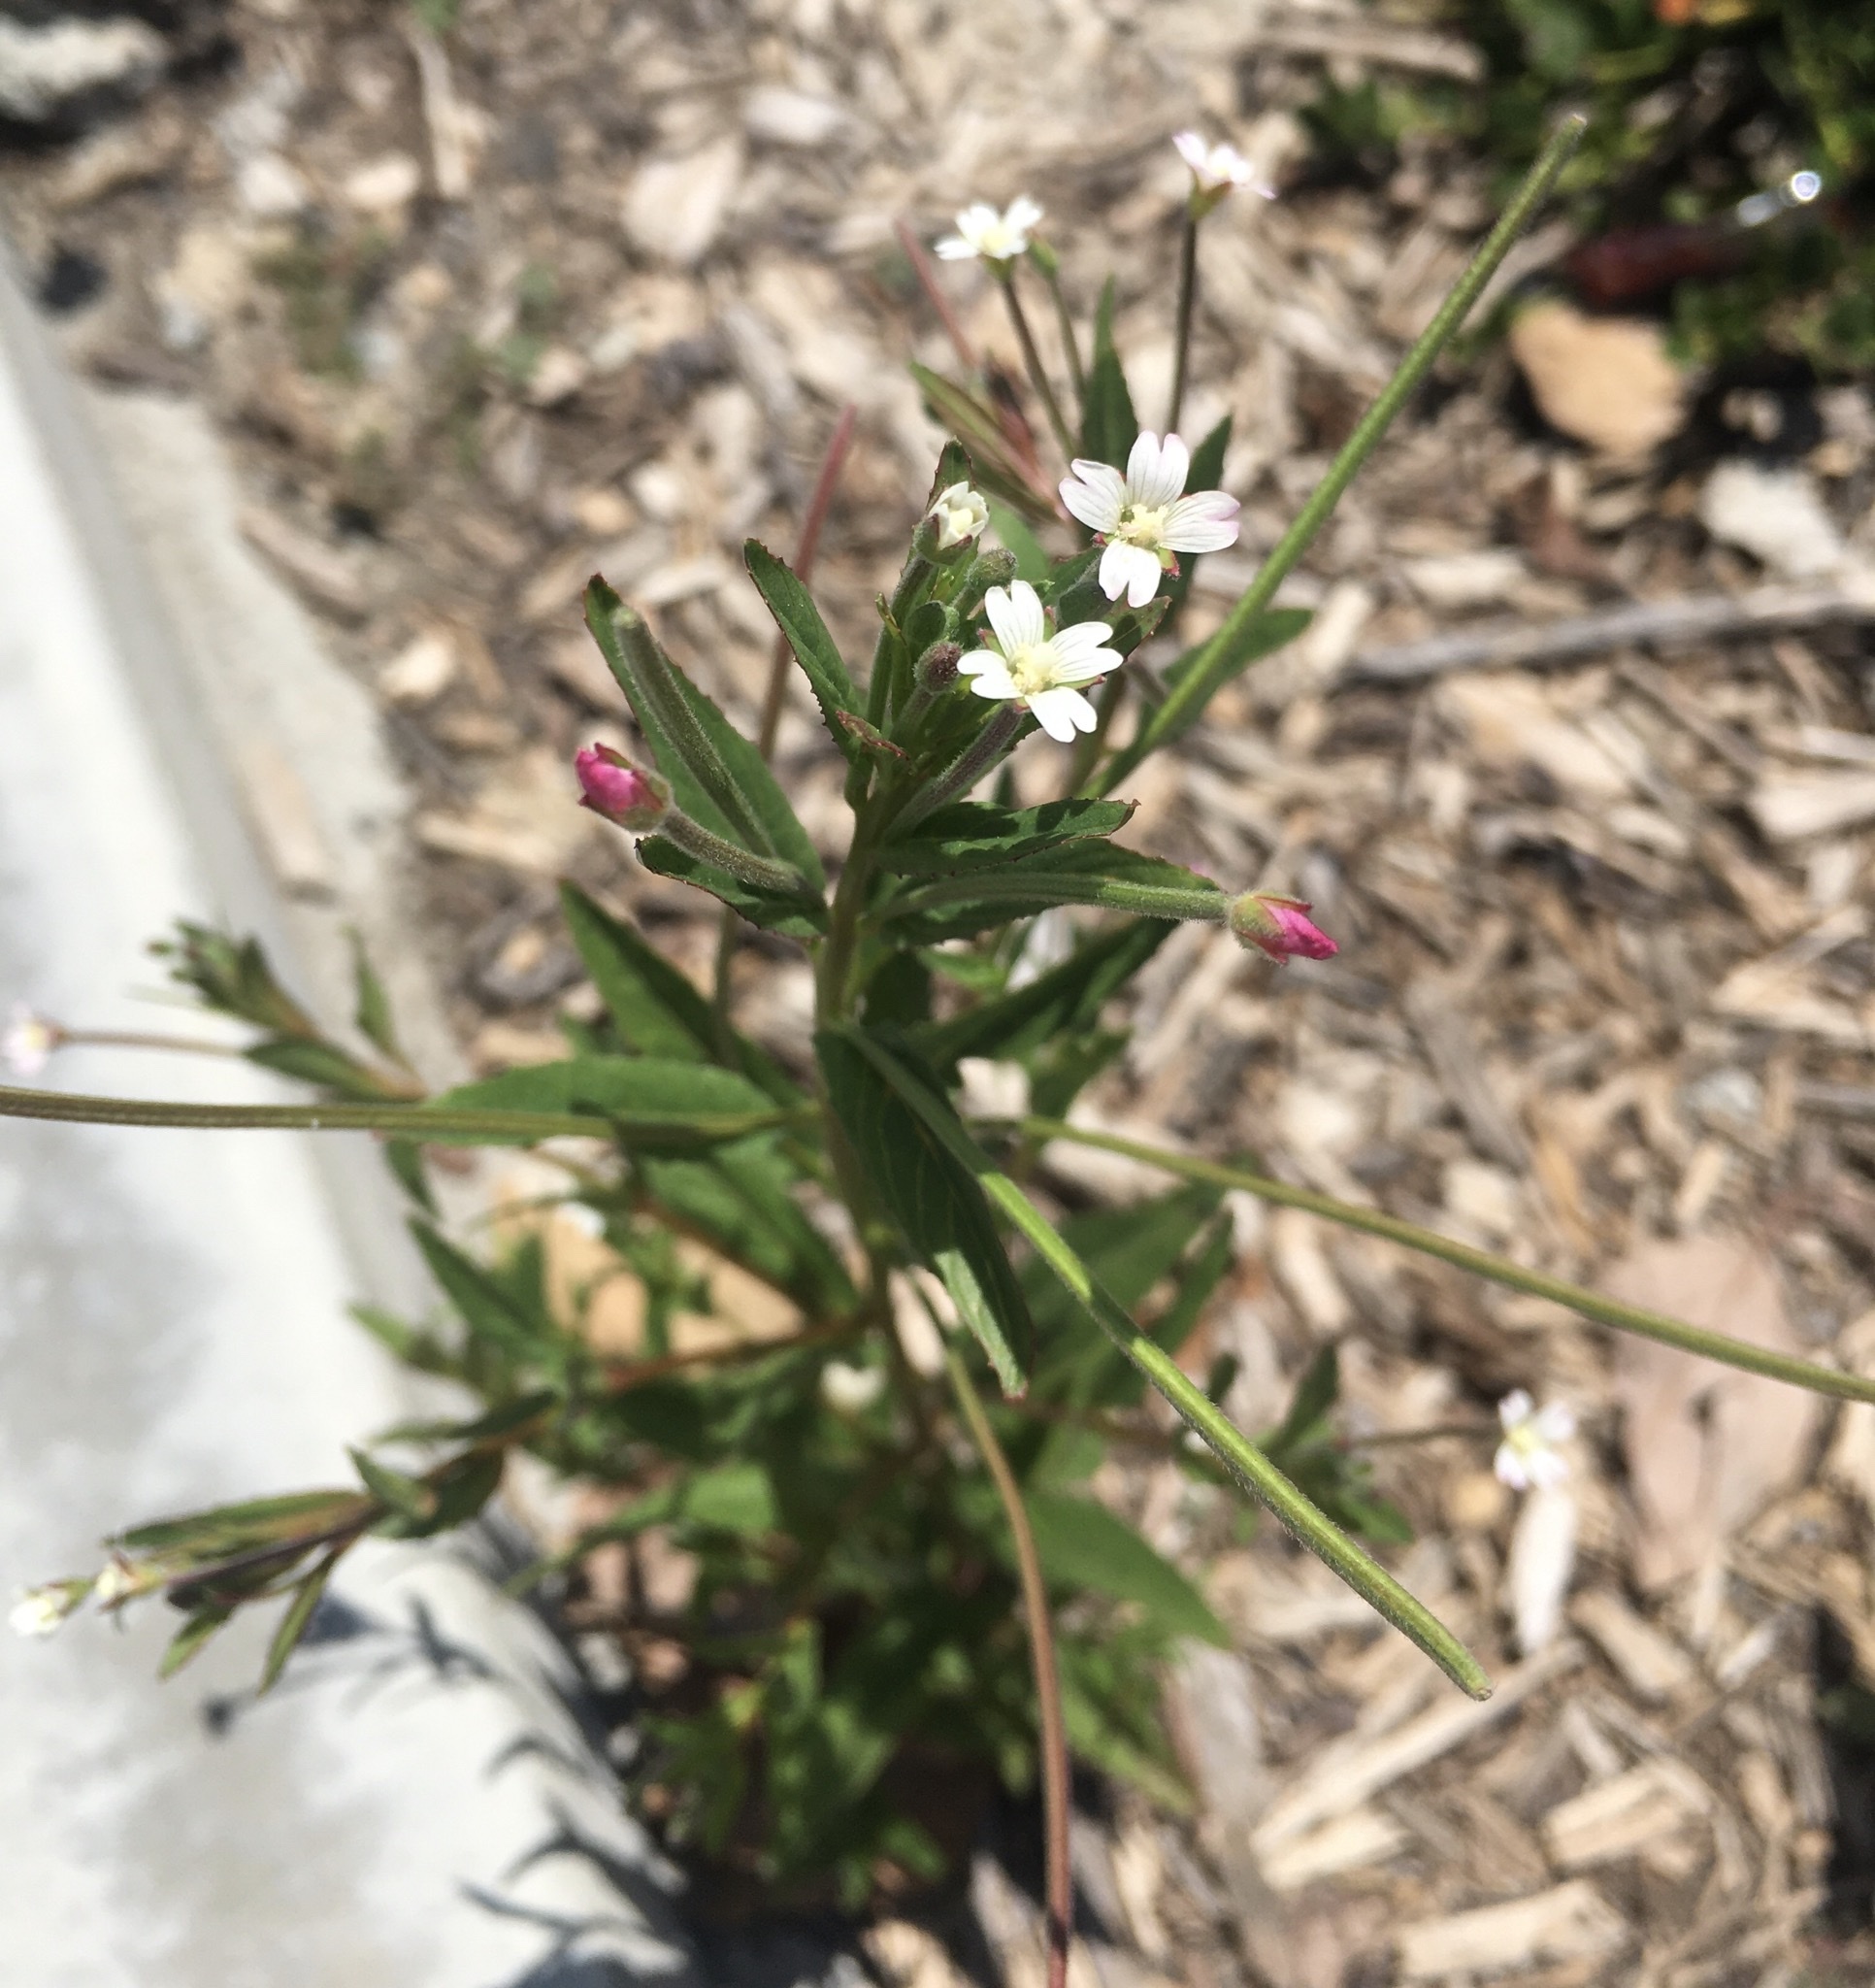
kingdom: Plantae
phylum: Tracheophyta
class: Magnoliopsida
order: Myrtales
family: Onagraceae
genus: Epilobium
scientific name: Epilobium ciliatum
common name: American willowherb
